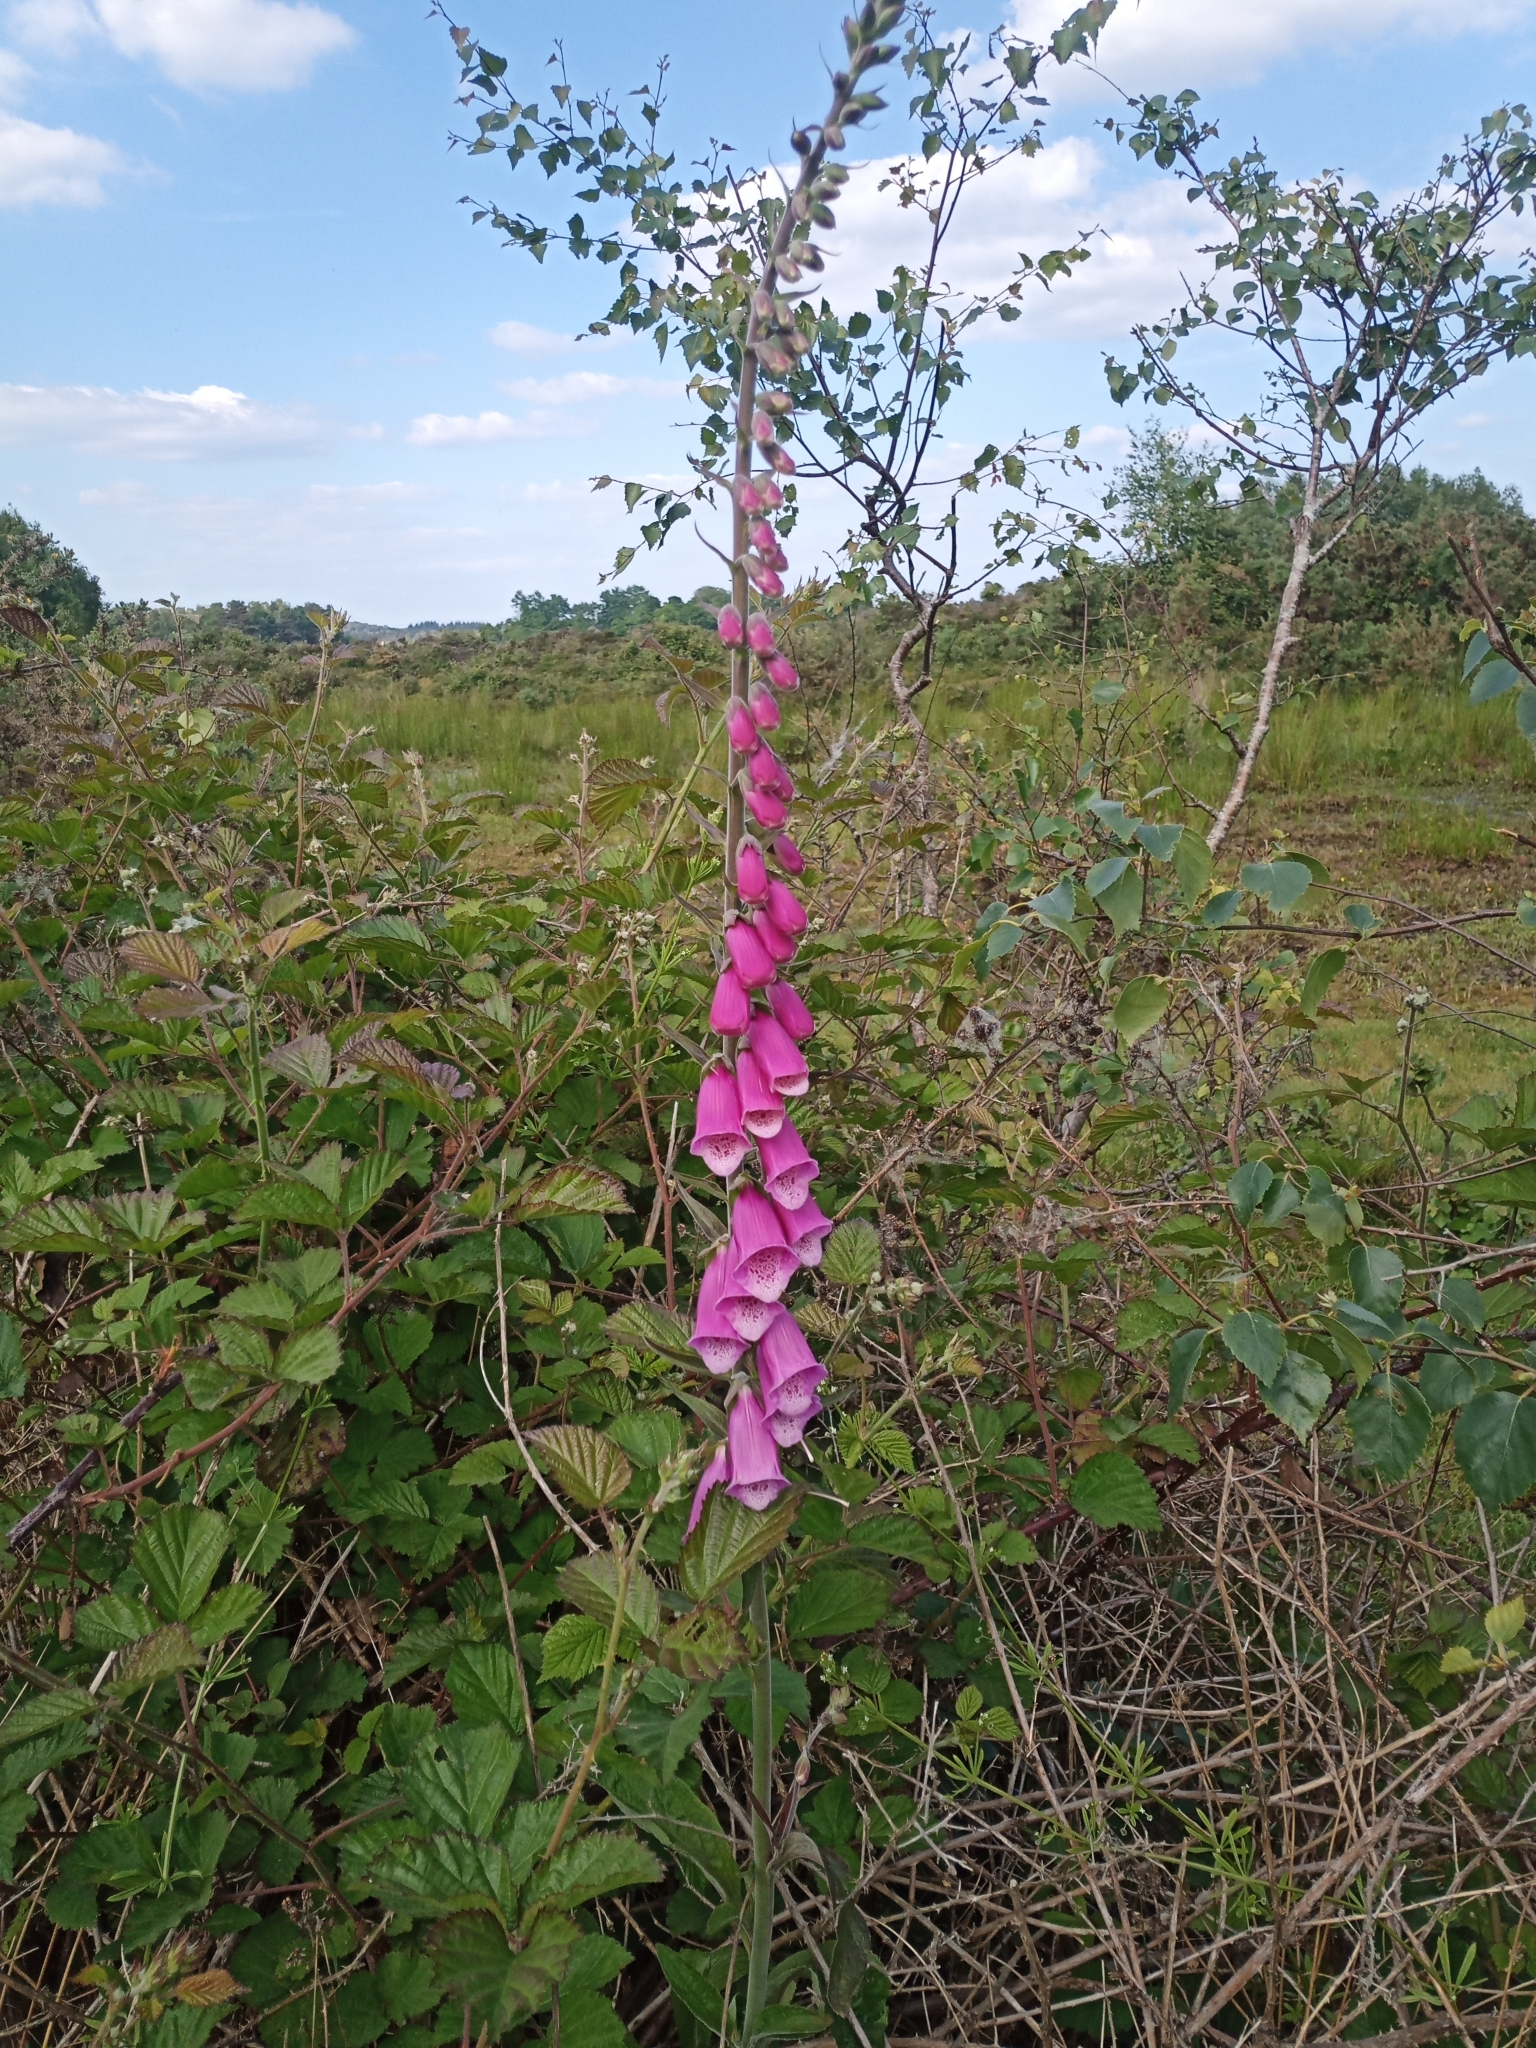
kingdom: Plantae
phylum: Tracheophyta
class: Magnoliopsida
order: Lamiales
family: Plantaginaceae
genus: Digitalis
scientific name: Digitalis purpurea
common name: Foxglove
